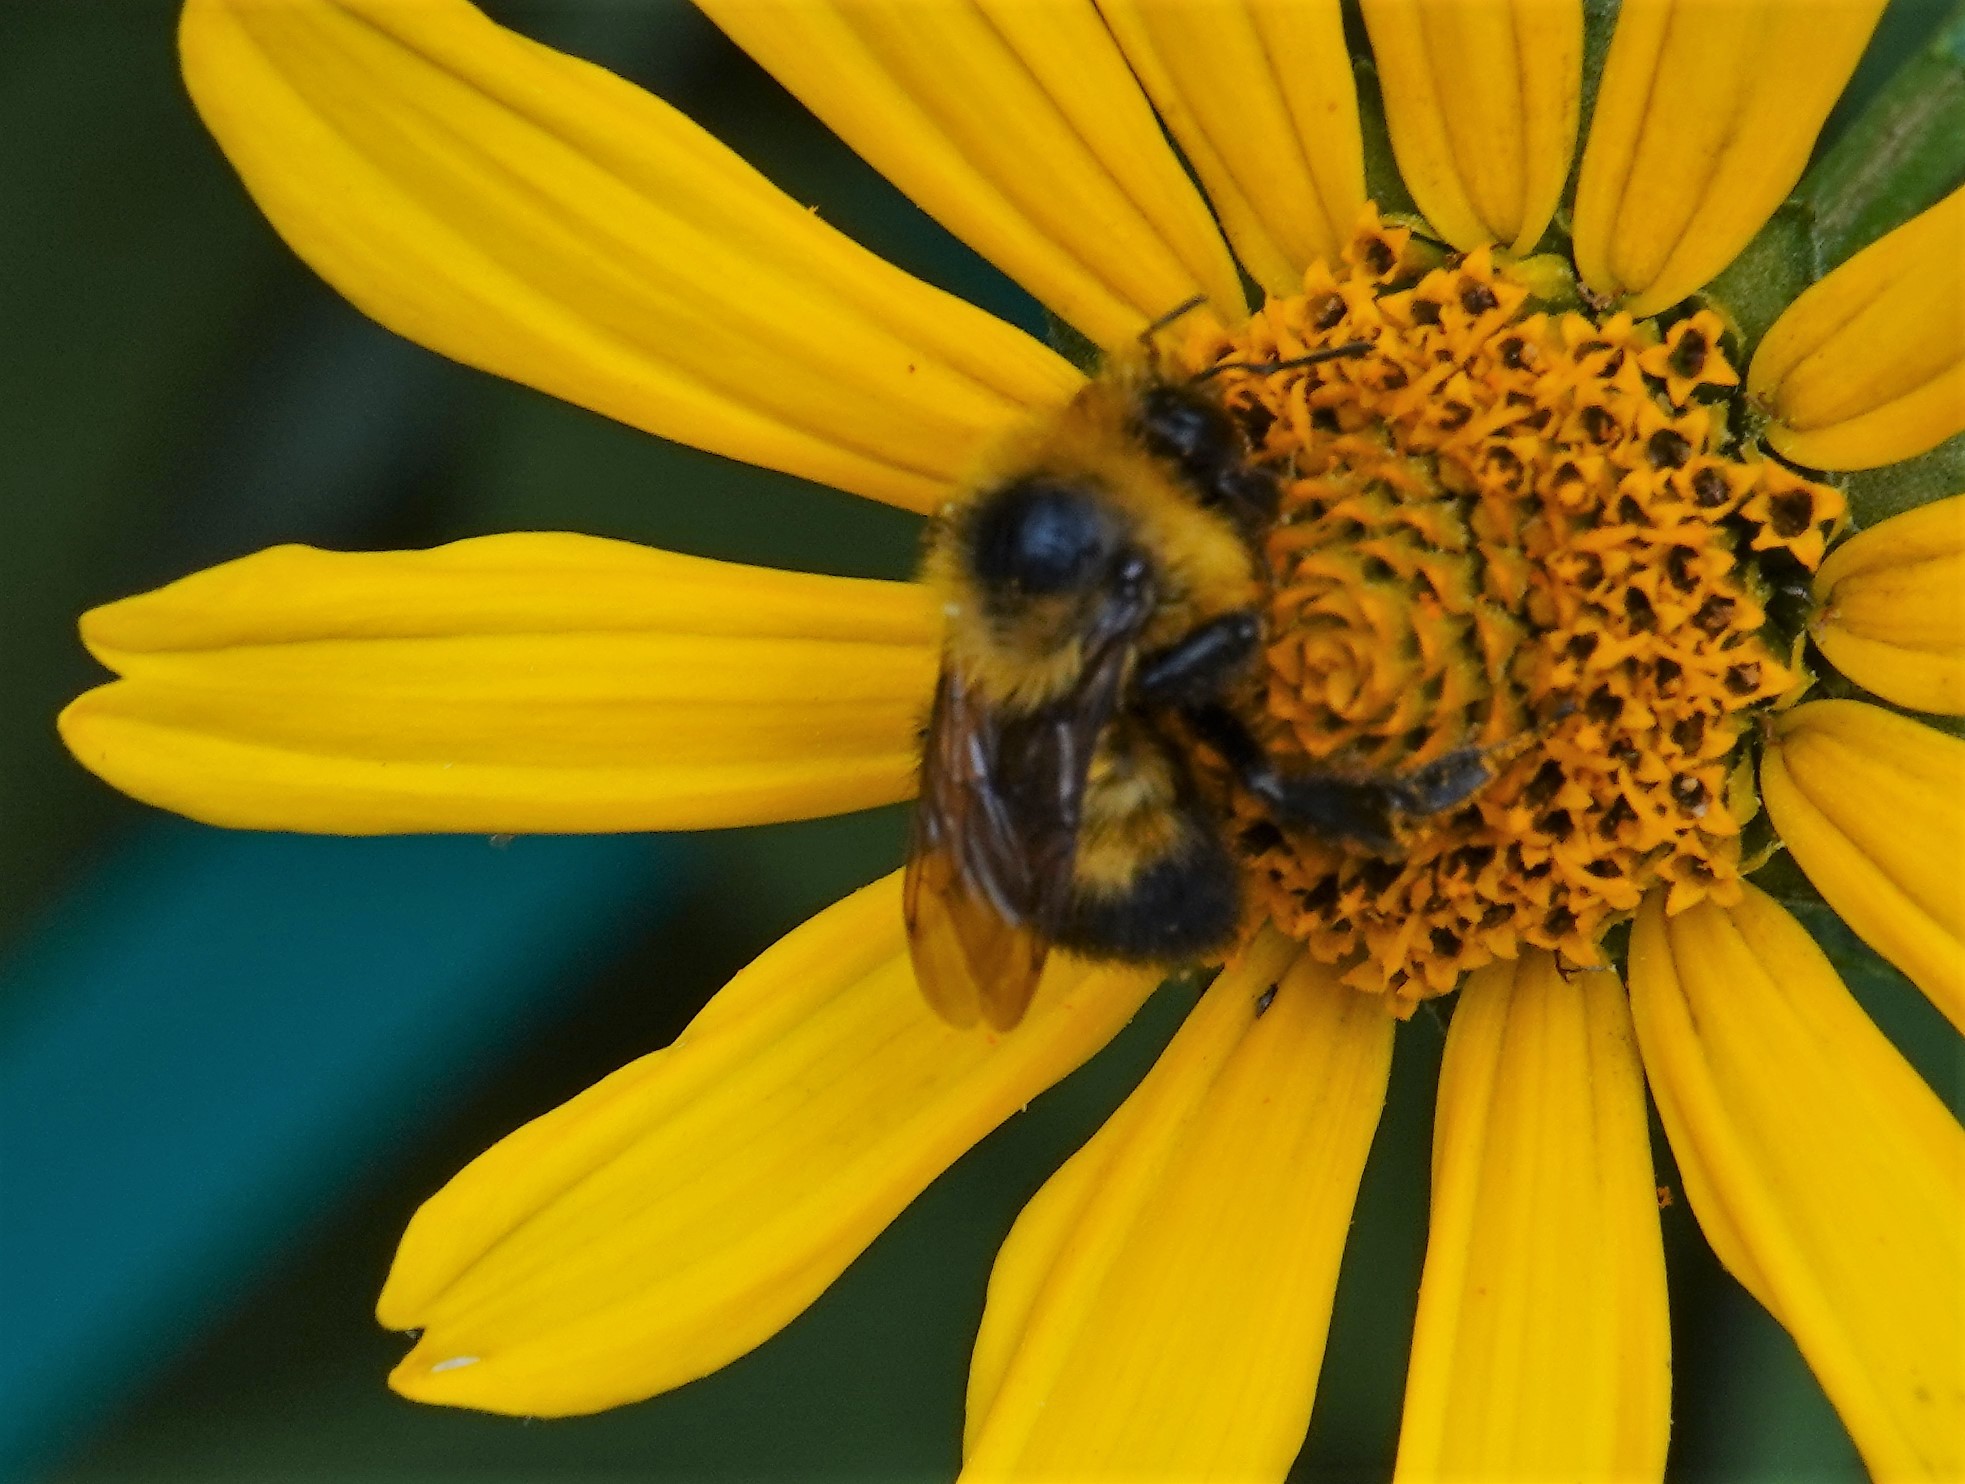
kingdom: Animalia
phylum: Arthropoda
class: Insecta
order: Hymenoptera
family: Apidae
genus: Bombus
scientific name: Bombus rufocinctus
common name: Red-belted bumble bee
